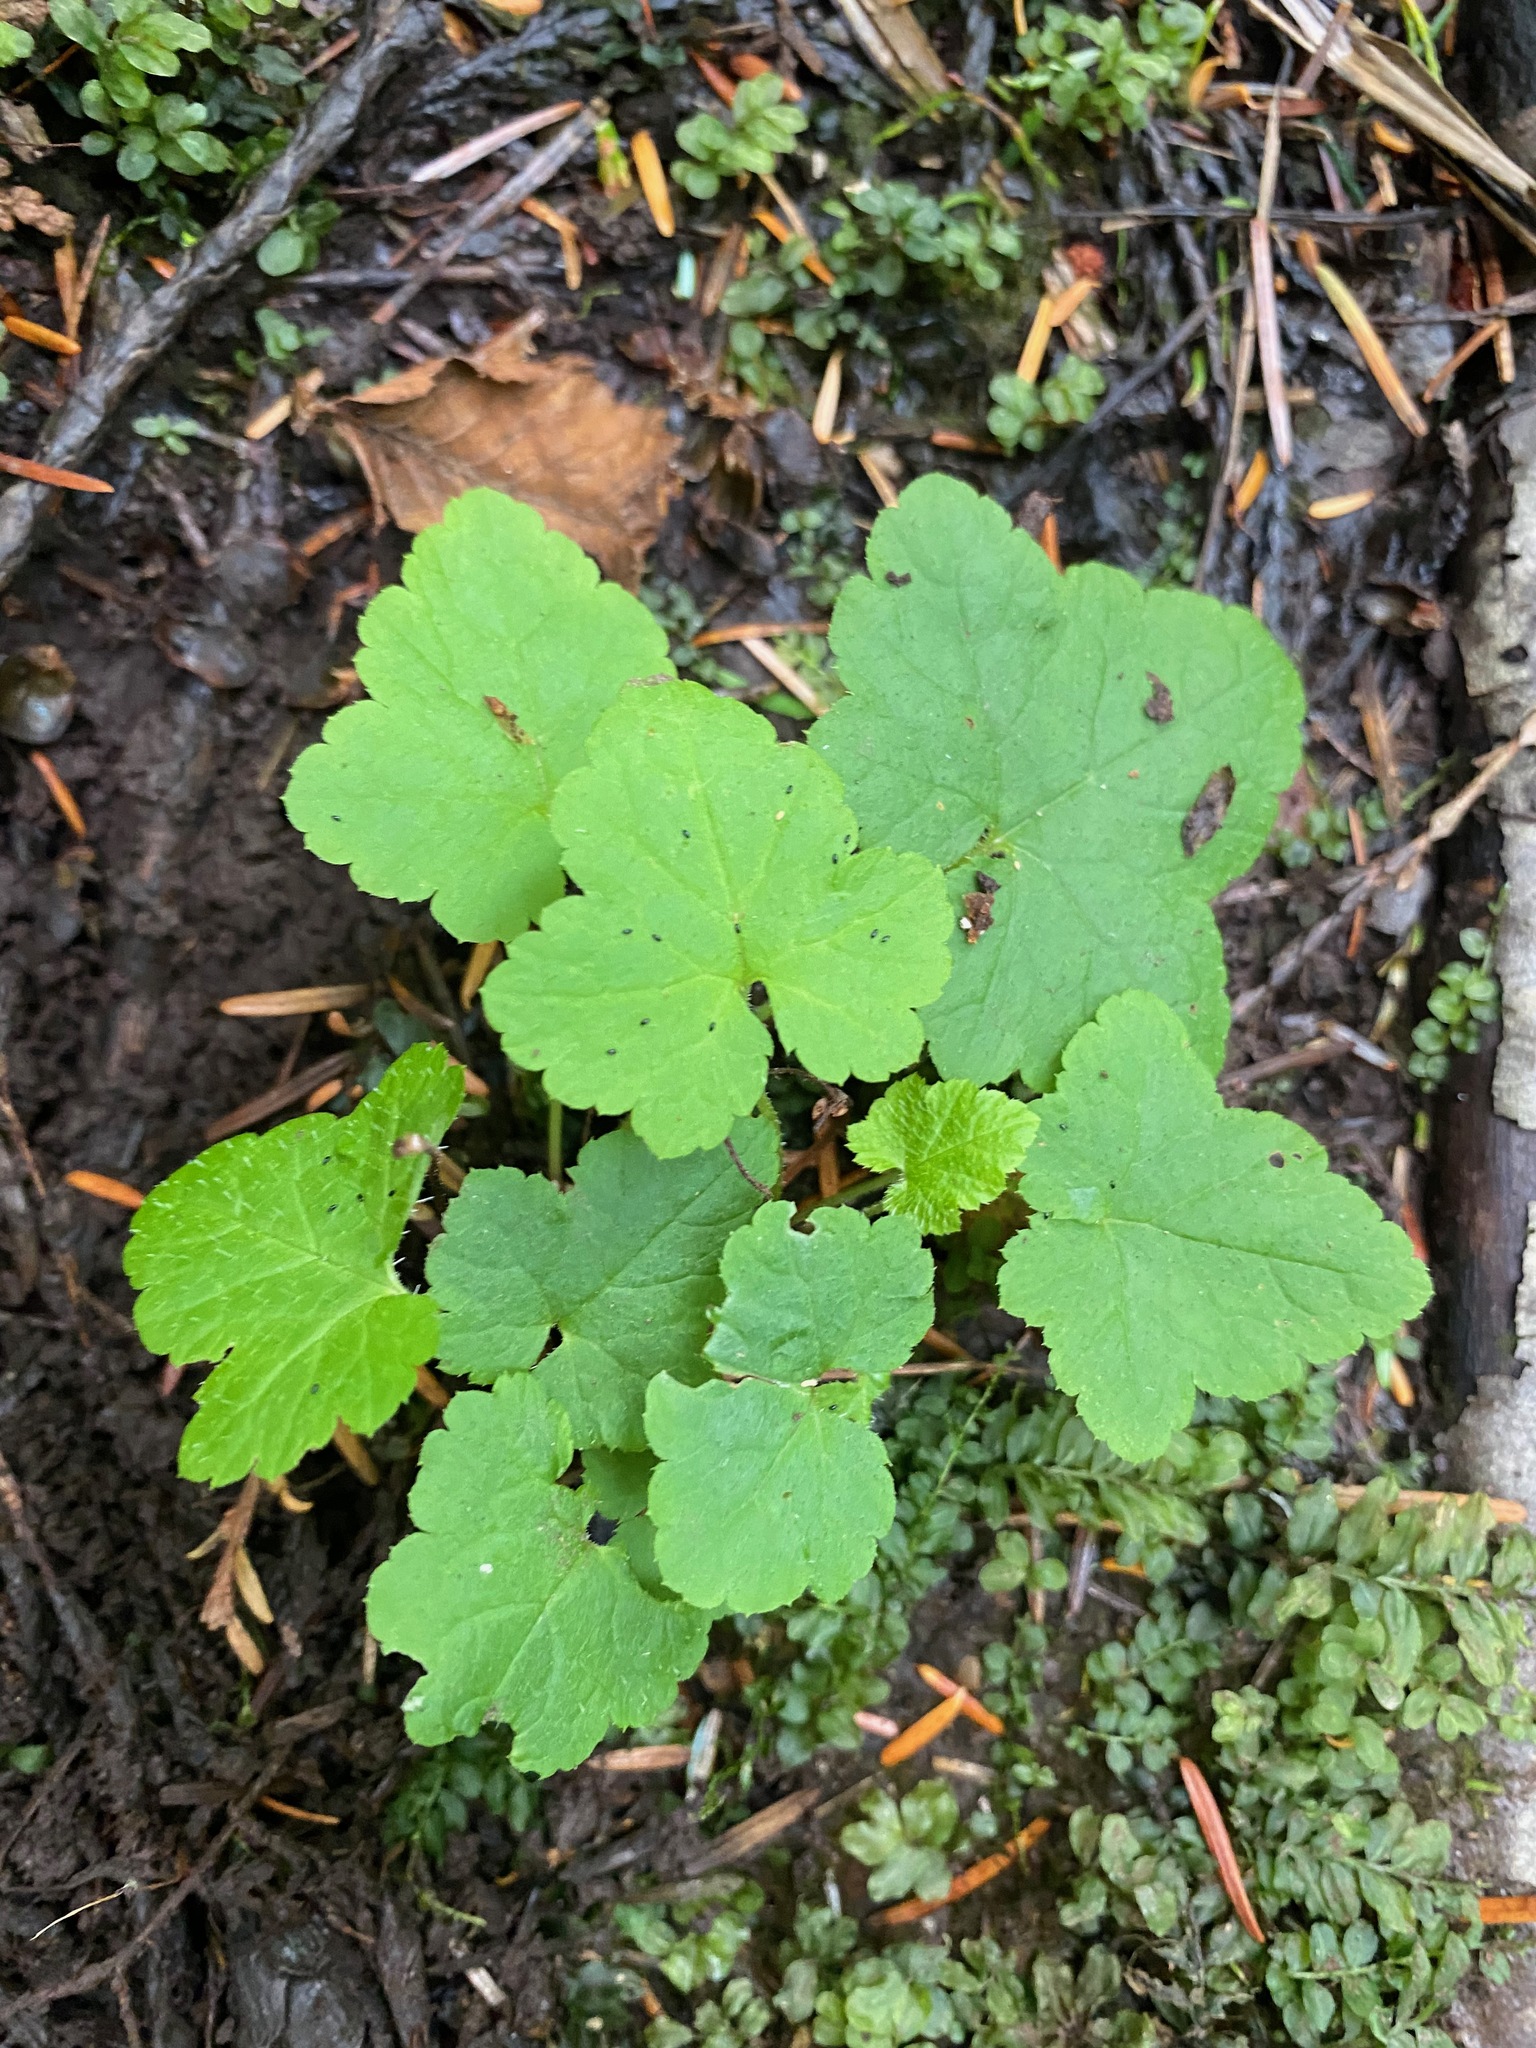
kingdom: Plantae
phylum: Tracheophyta
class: Magnoliopsida
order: Saxifragales
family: Saxifragaceae
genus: Tiarella
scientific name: Tiarella trifoliata
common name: Sugar-scoop
